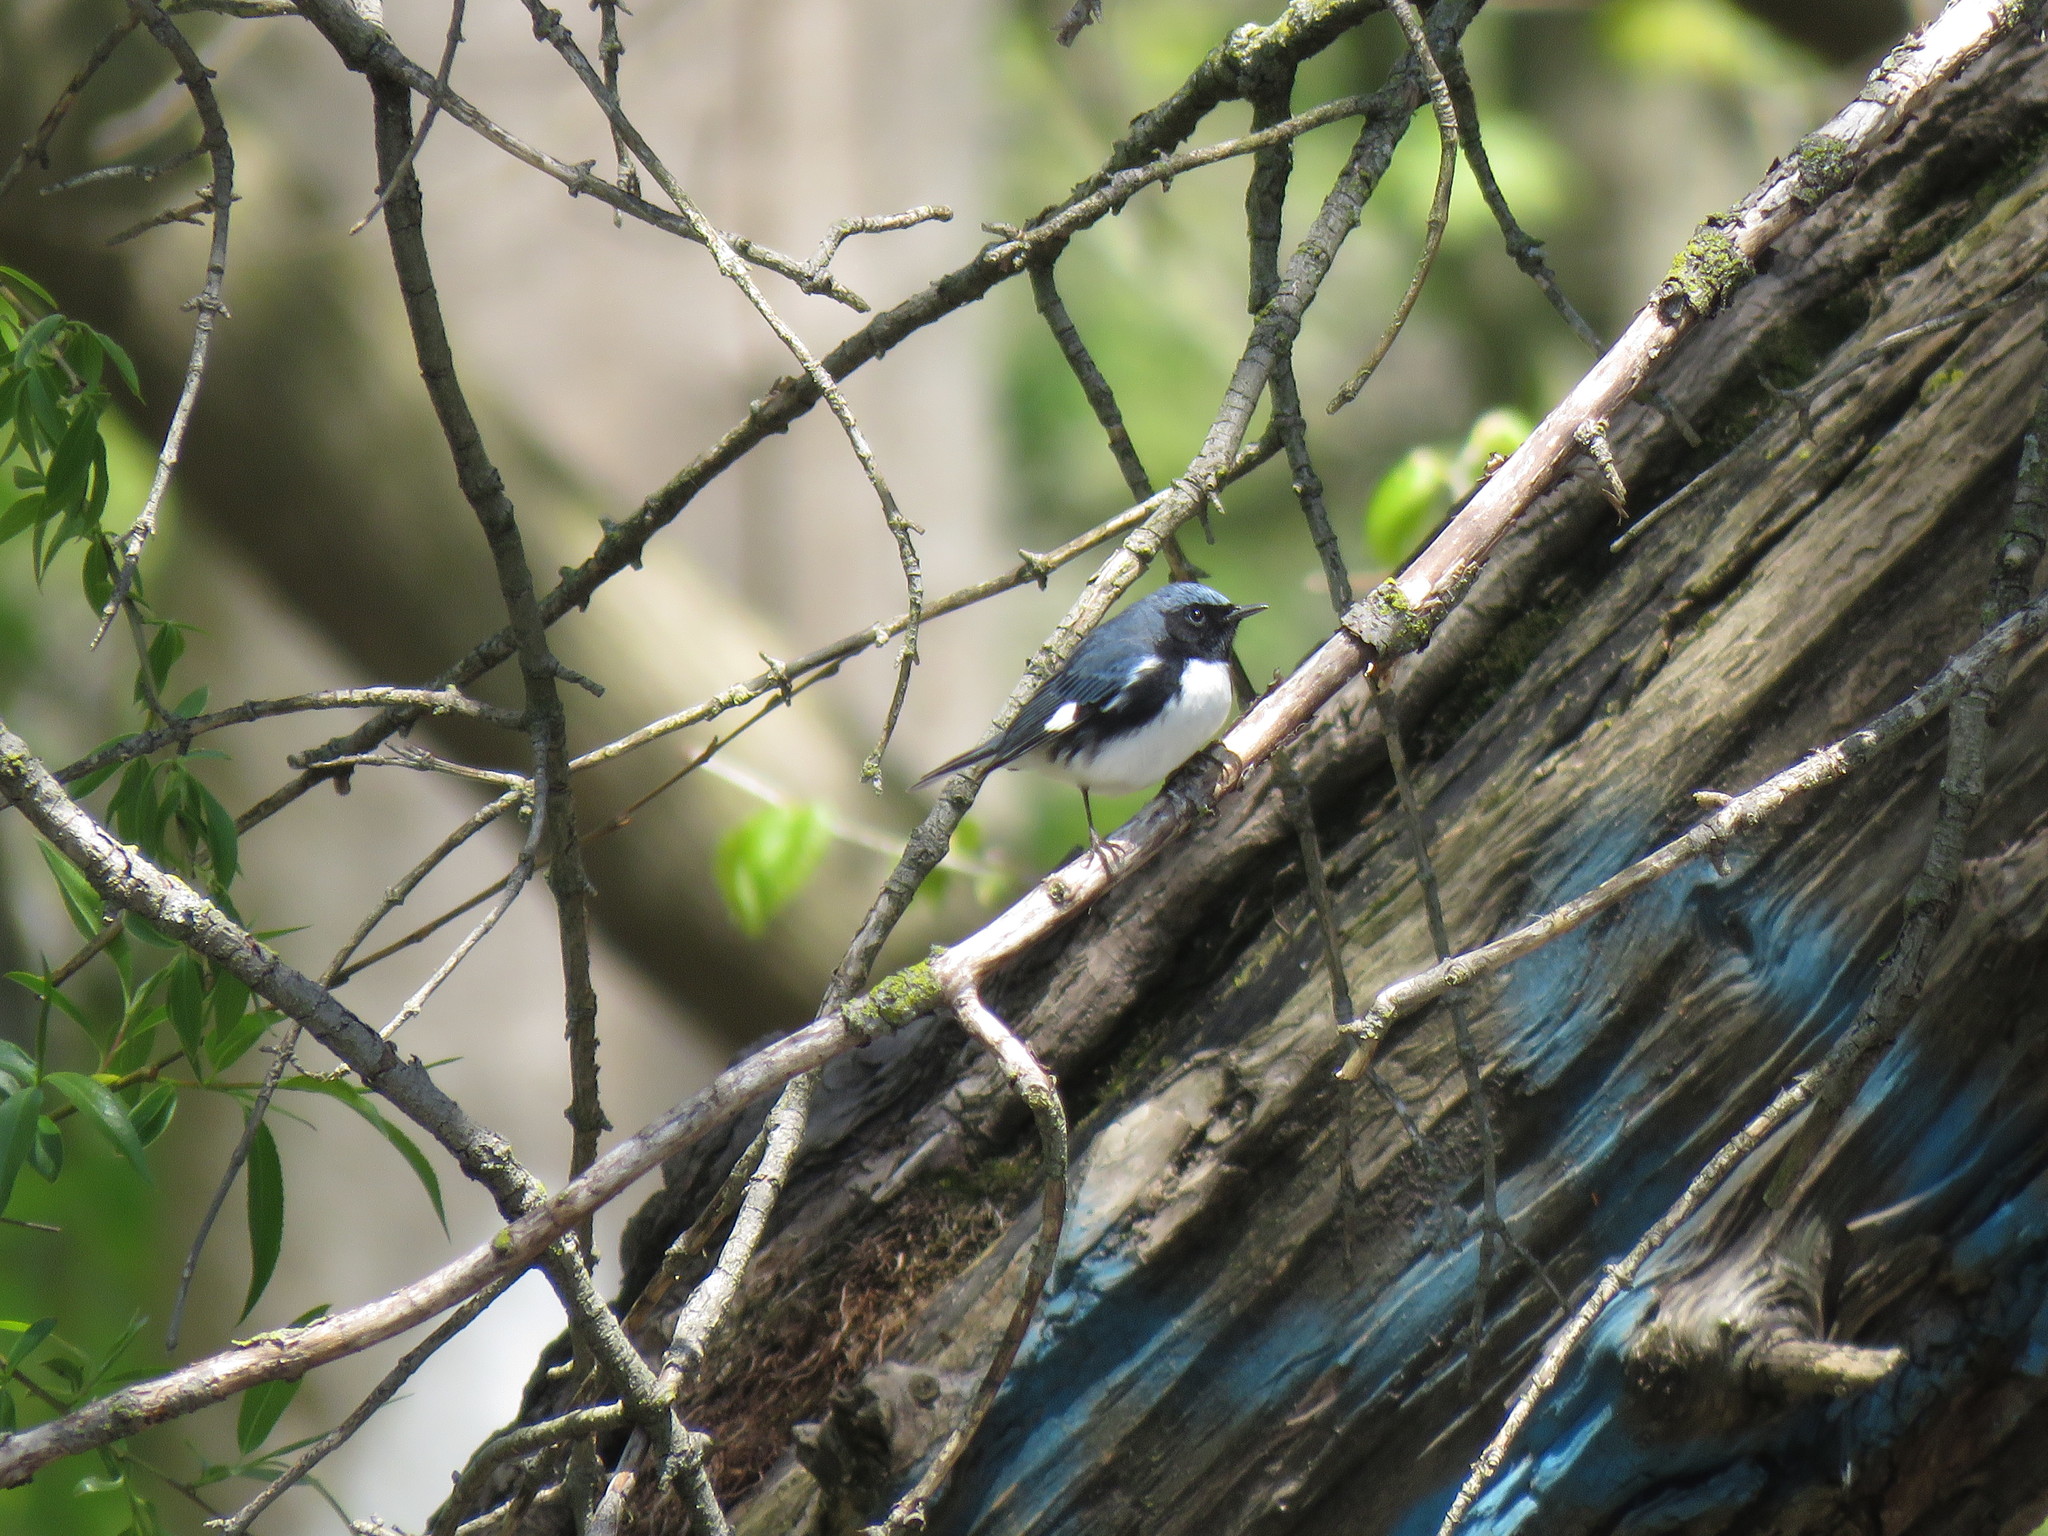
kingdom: Animalia
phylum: Chordata
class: Aves
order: Passeriformes
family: Parulidae
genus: Setophaga
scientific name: Setophaga caerulescens
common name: Black-throated blue warbler
